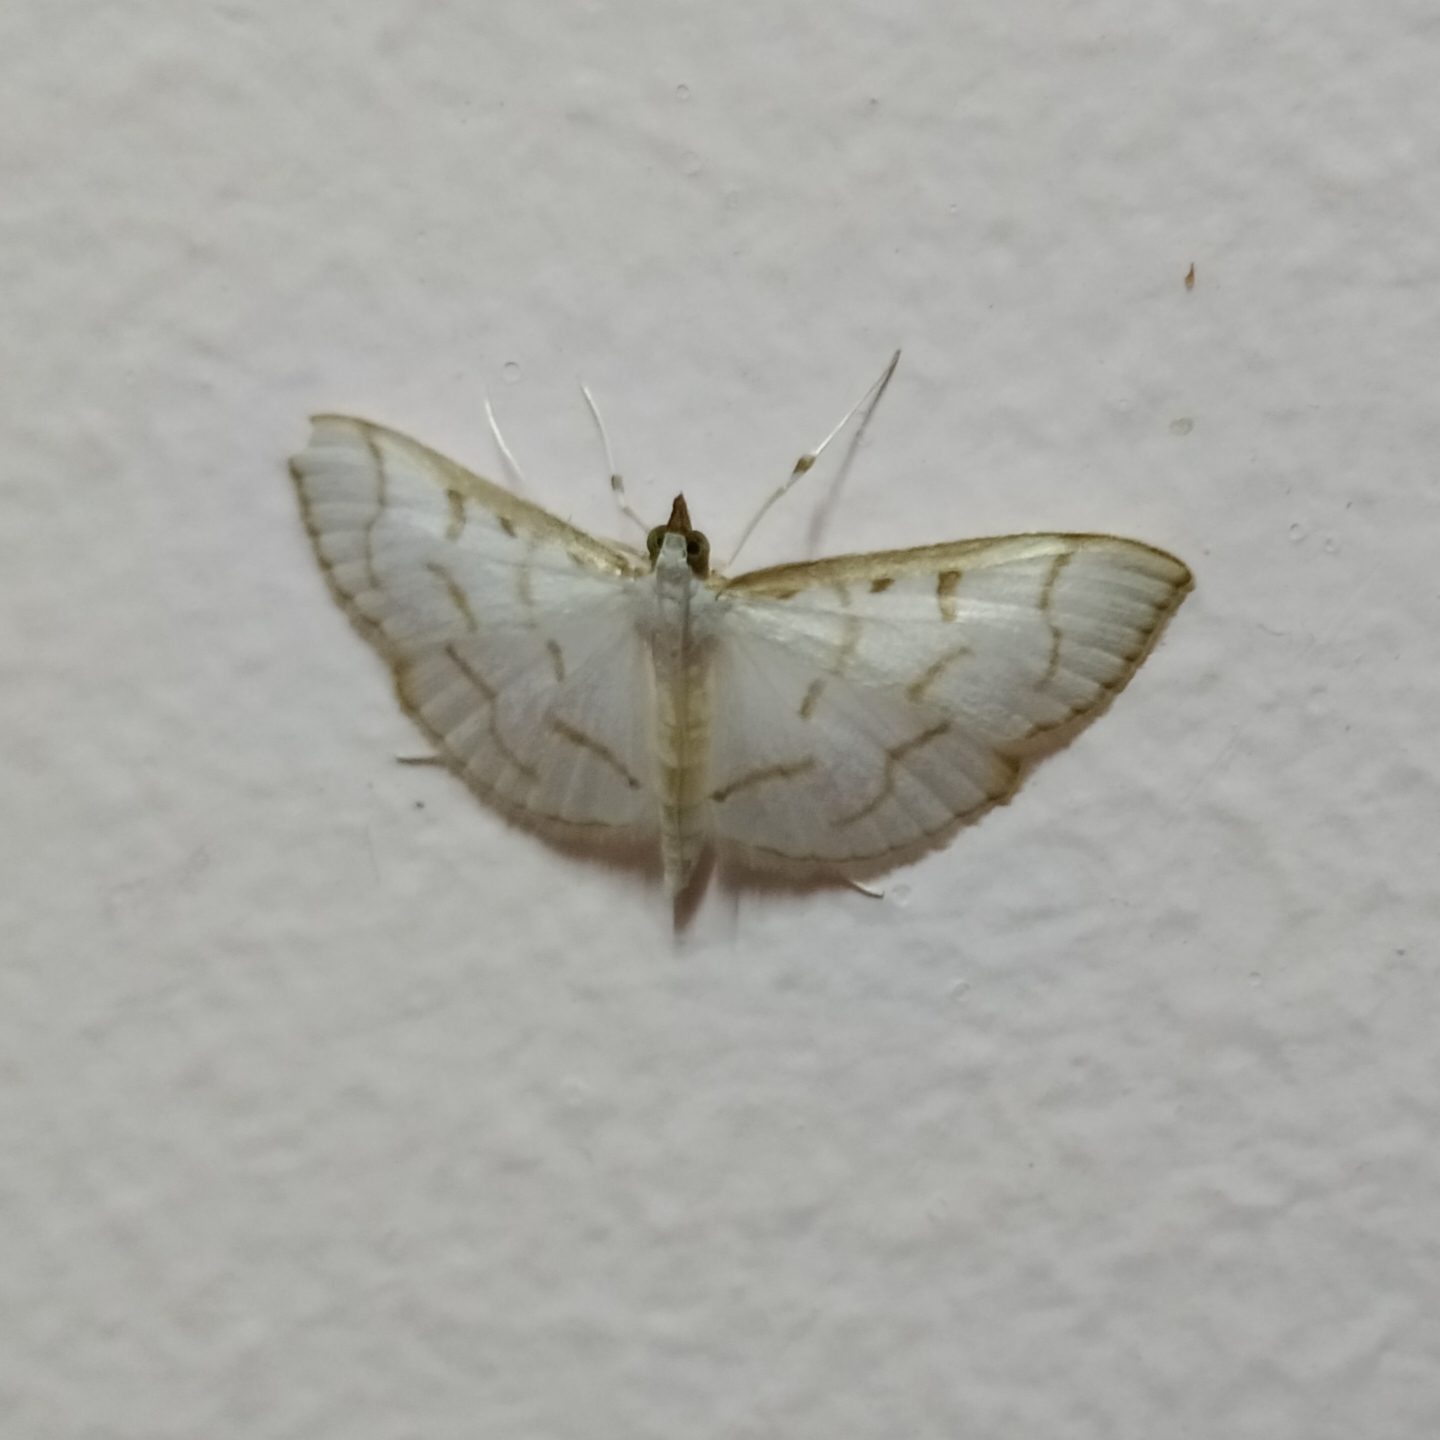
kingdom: Animalia
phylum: Arthropoda
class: Insecta
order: Lepidoptera
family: Crambidae
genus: Antigastra
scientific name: Antigastra morysalis
